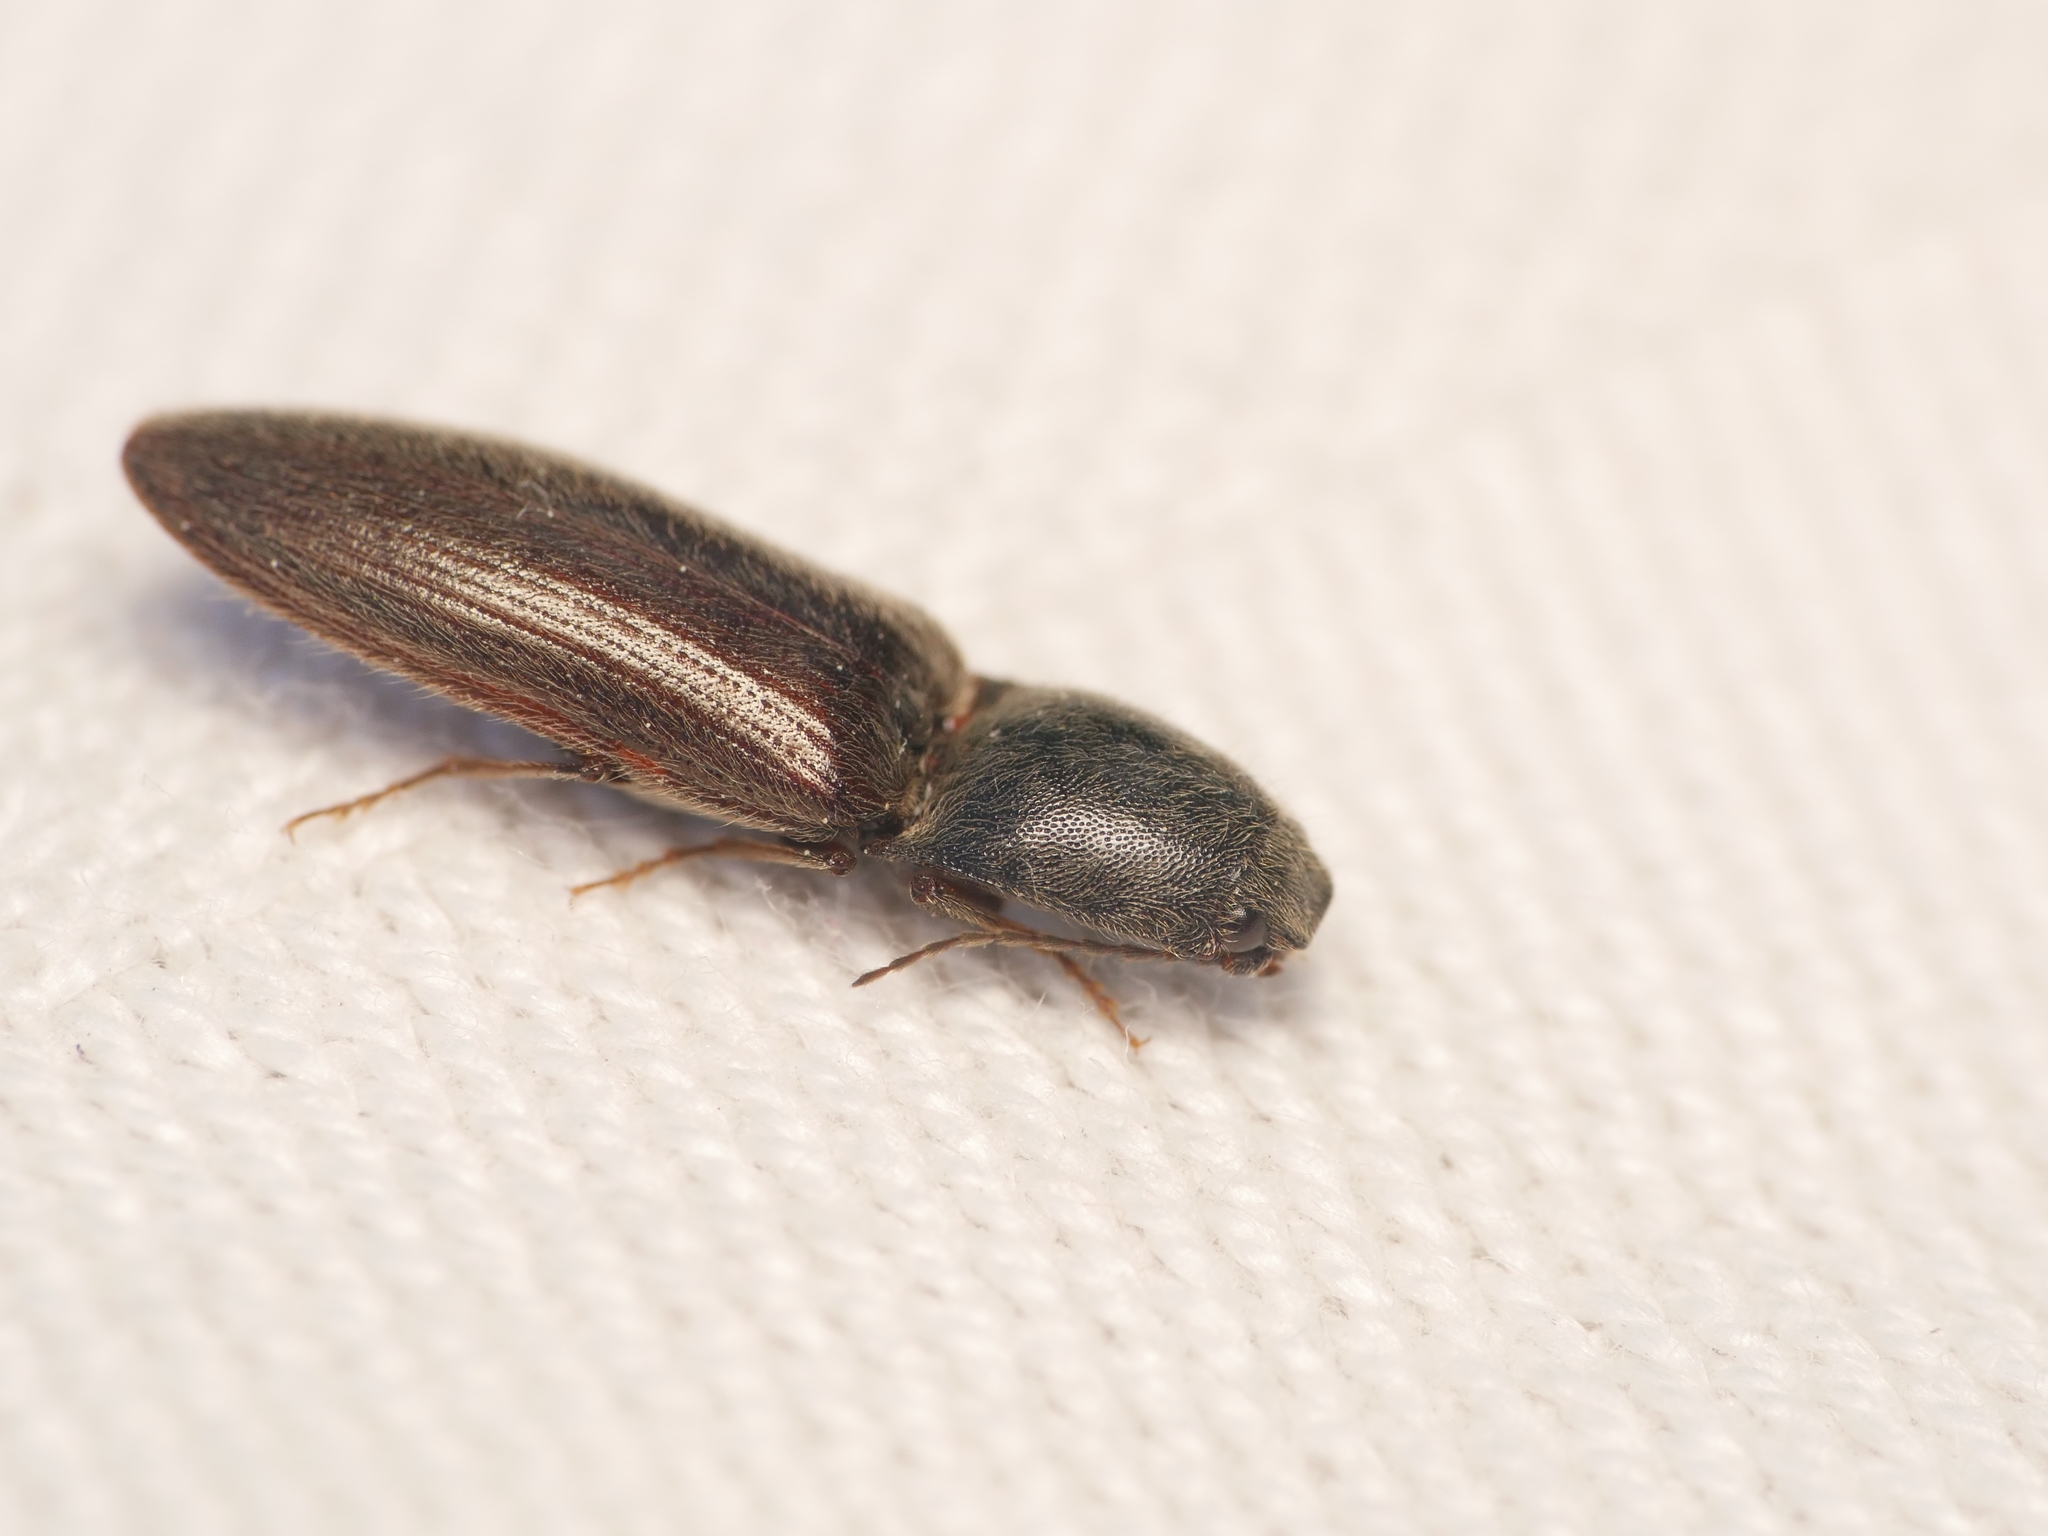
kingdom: Animalia
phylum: Arthropoda
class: Insecta
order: Coleoptera
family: Elateridae
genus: Athous
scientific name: Athous haemorrhoidalis
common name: Red-brown click beetle
